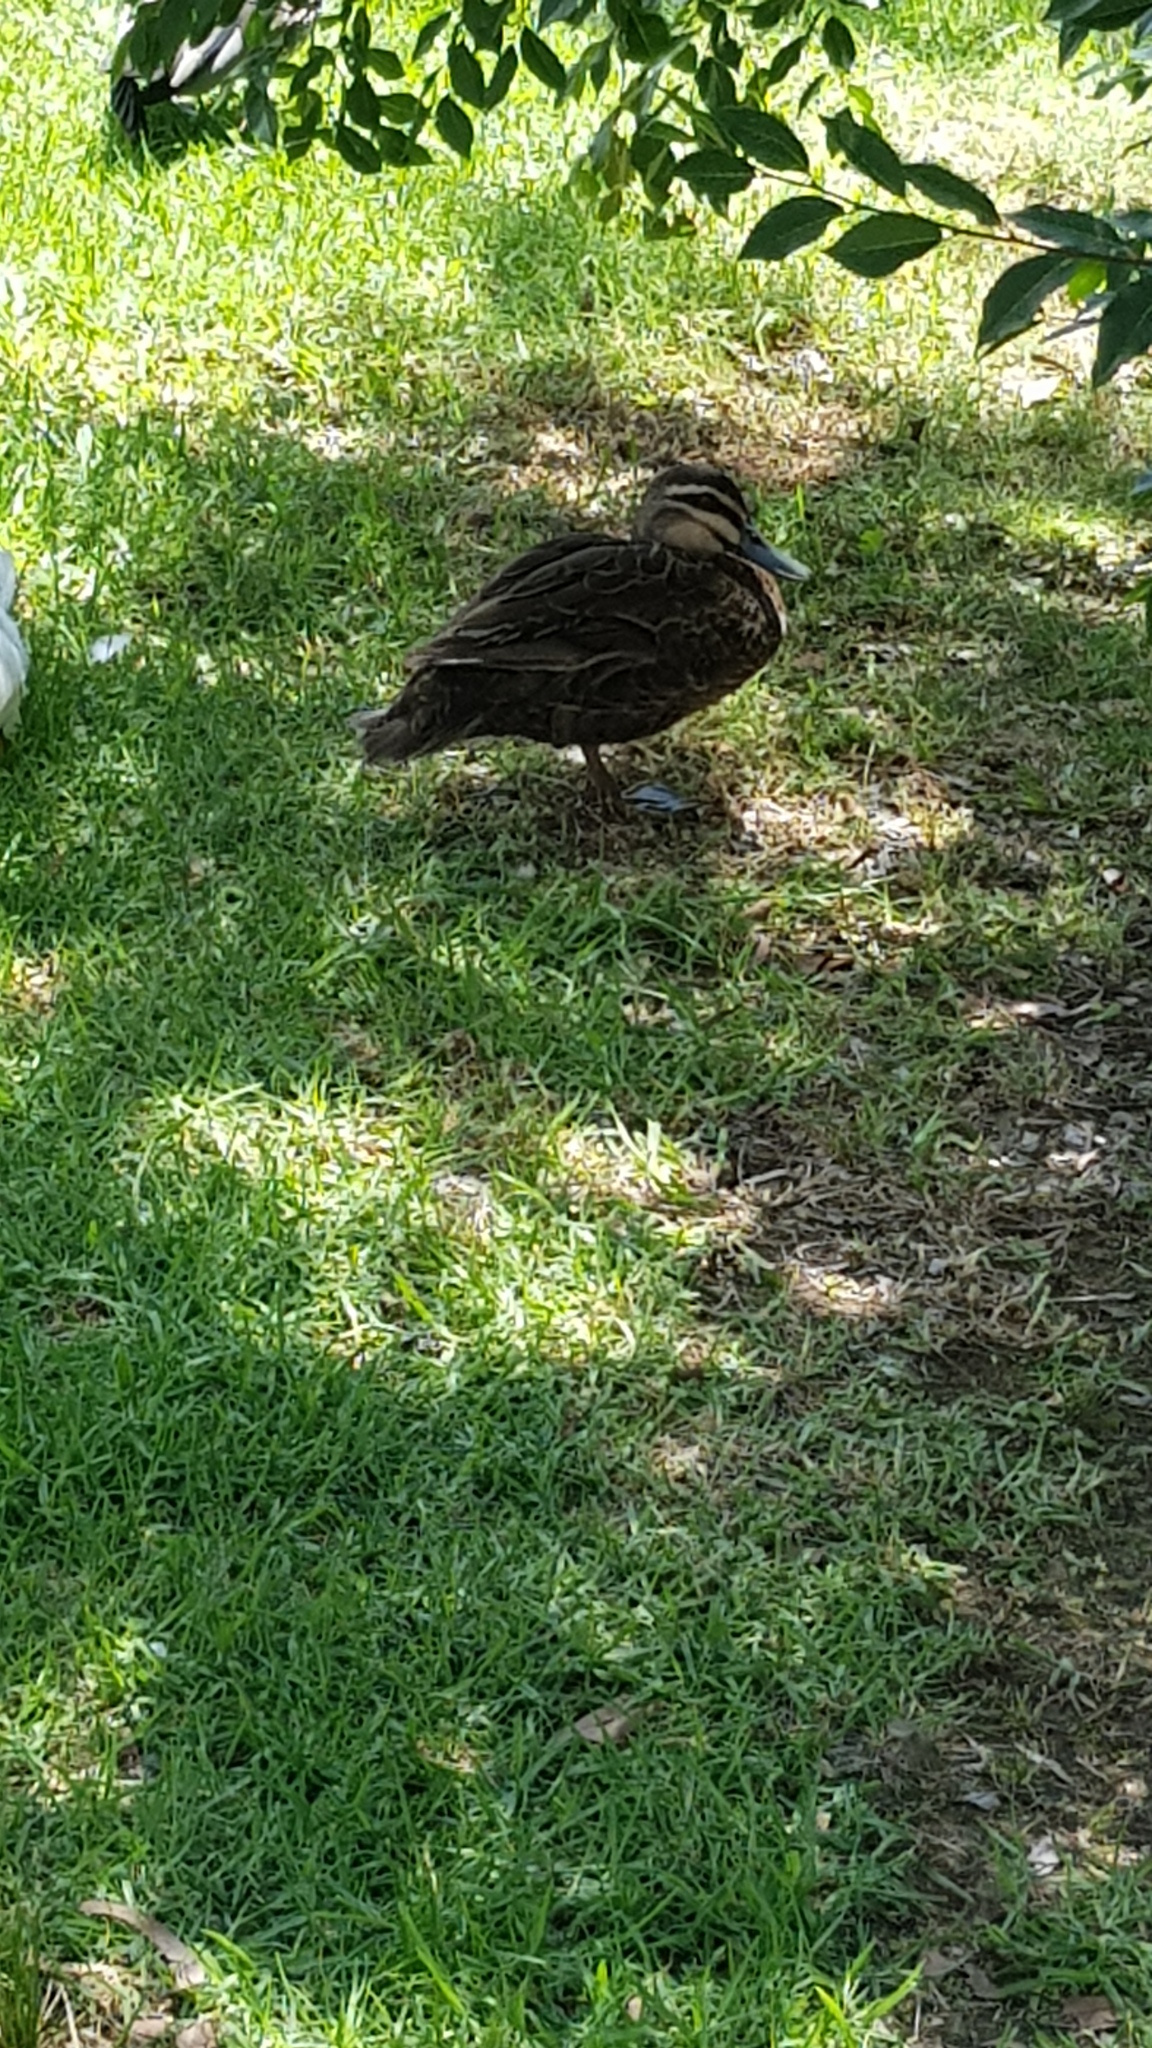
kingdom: Animalia
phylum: Chordata
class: Aves
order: Anseriformes
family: Anatidae
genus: Anas
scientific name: Anas superciliosa
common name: Pacific black duck
